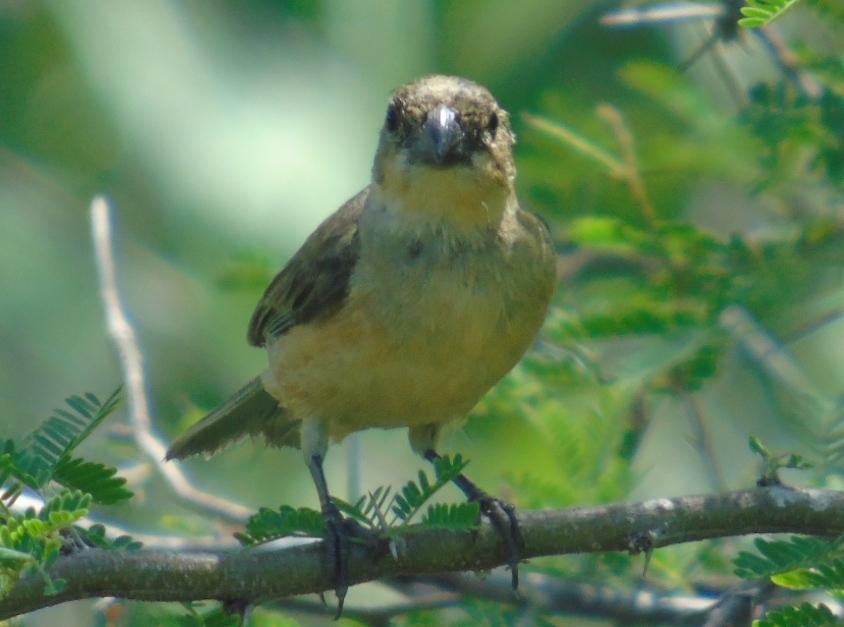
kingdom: Animalia
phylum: Chordata
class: Aves
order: Passeriformes
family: Thraupidae
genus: Sporophila
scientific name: Sporophila torqueola
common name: White-collared seedeater
